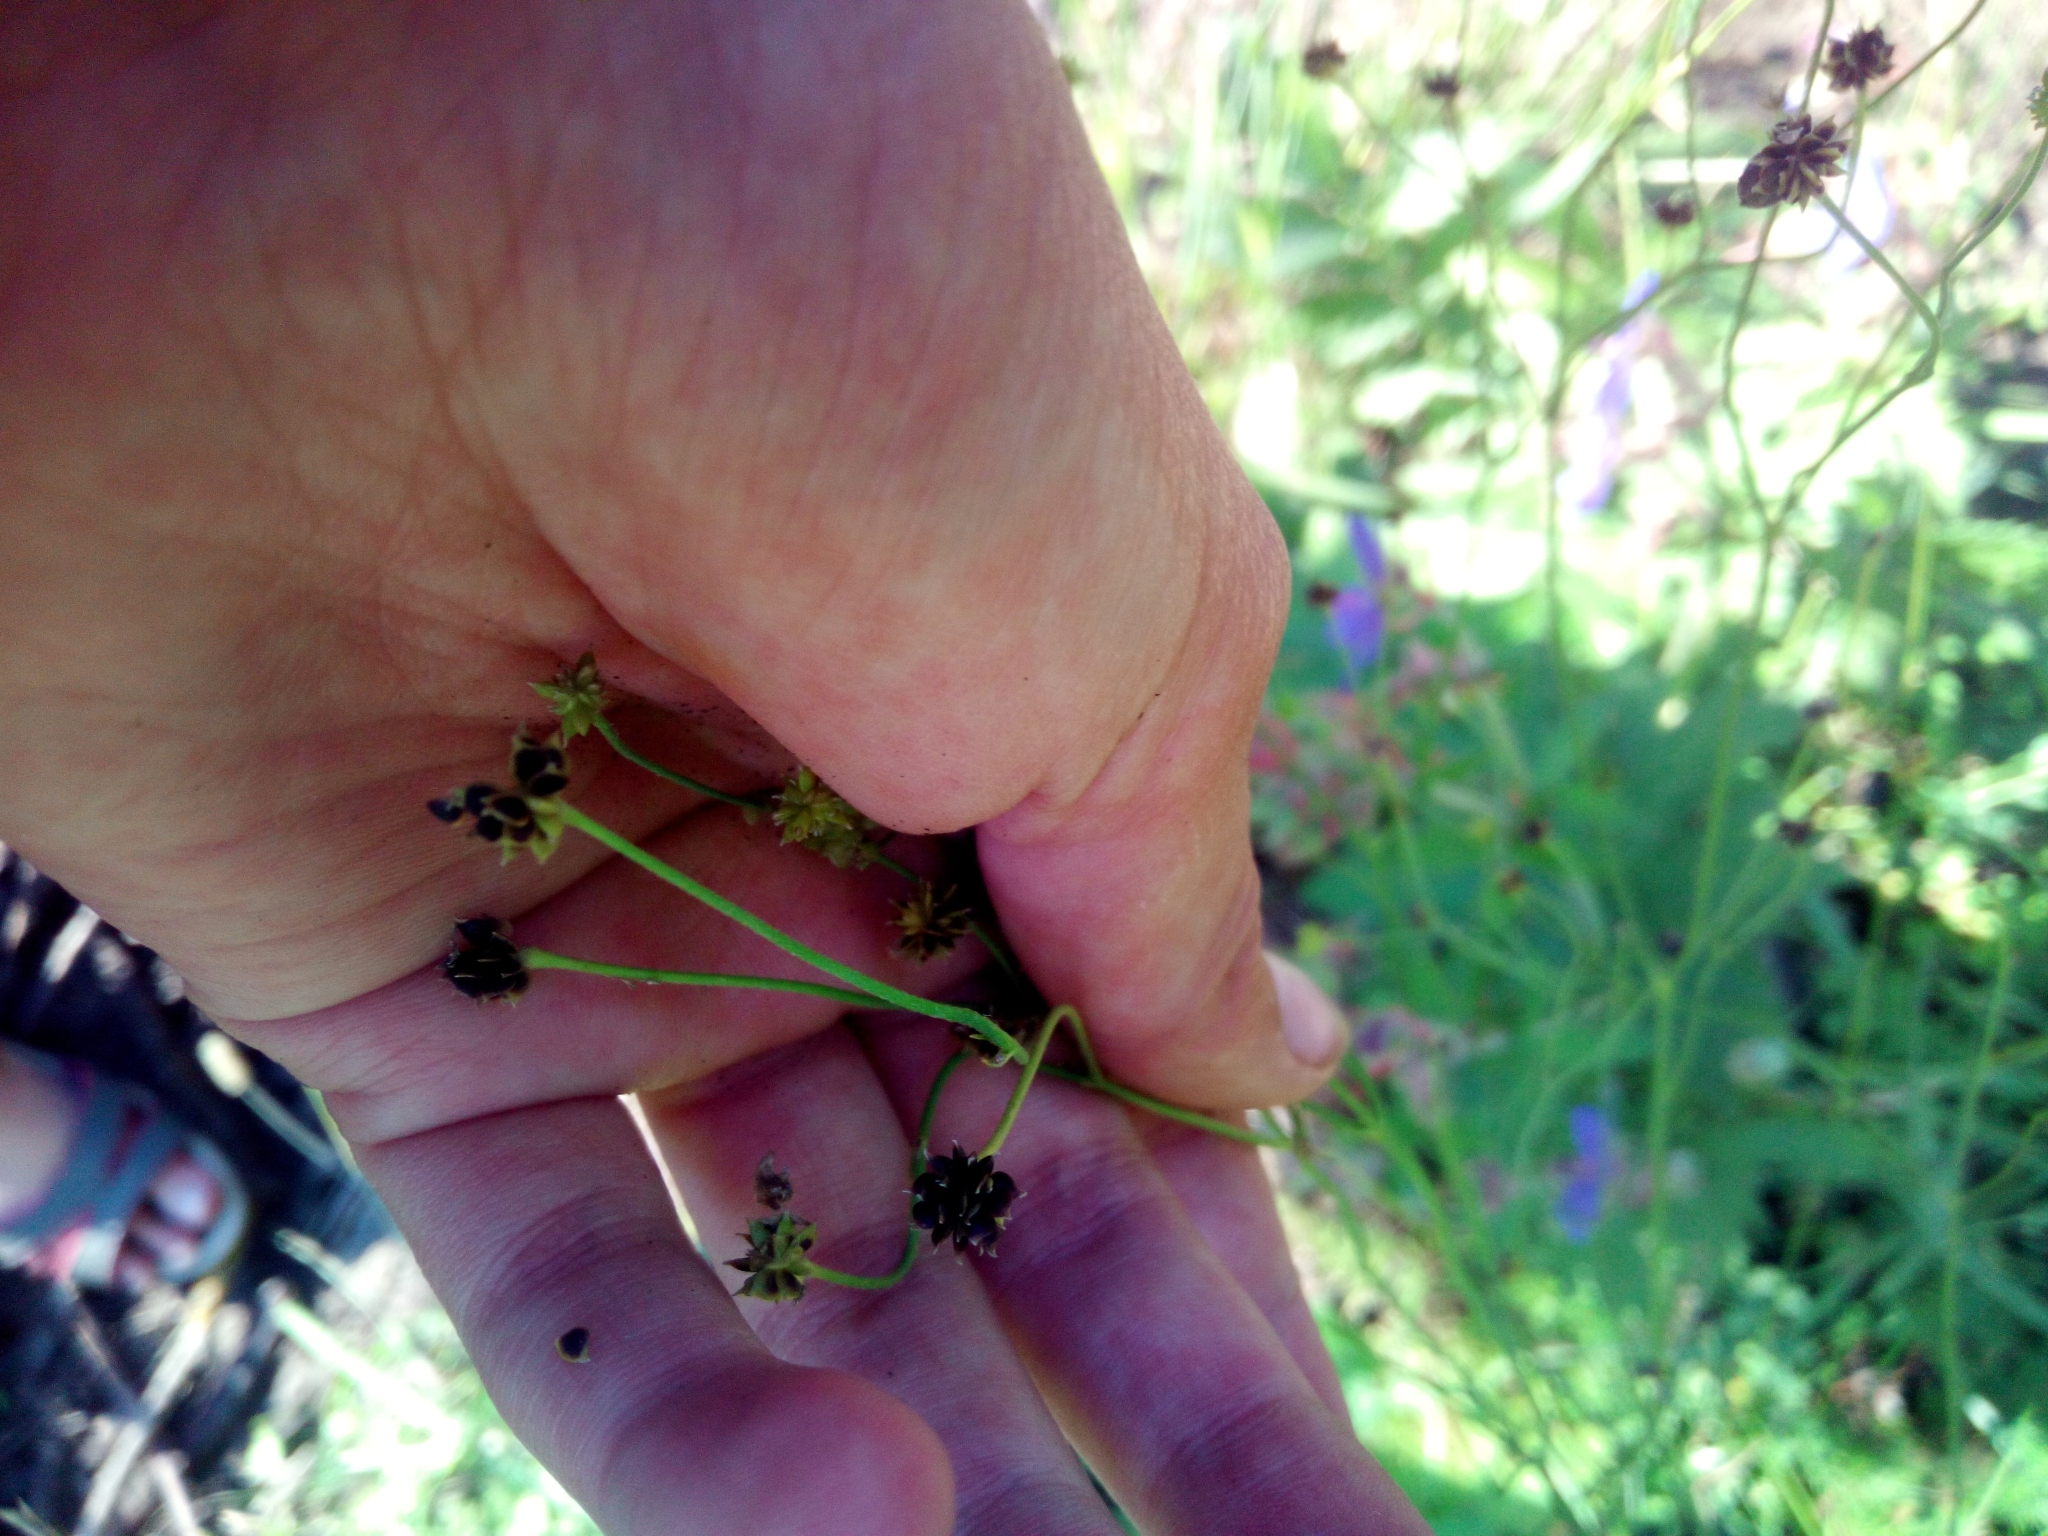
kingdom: Plantae
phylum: Tracheophyta
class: Magnoliopsida
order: Ranunculales
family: Ranunculaceae
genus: Ranunculus
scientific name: Ranunculus
